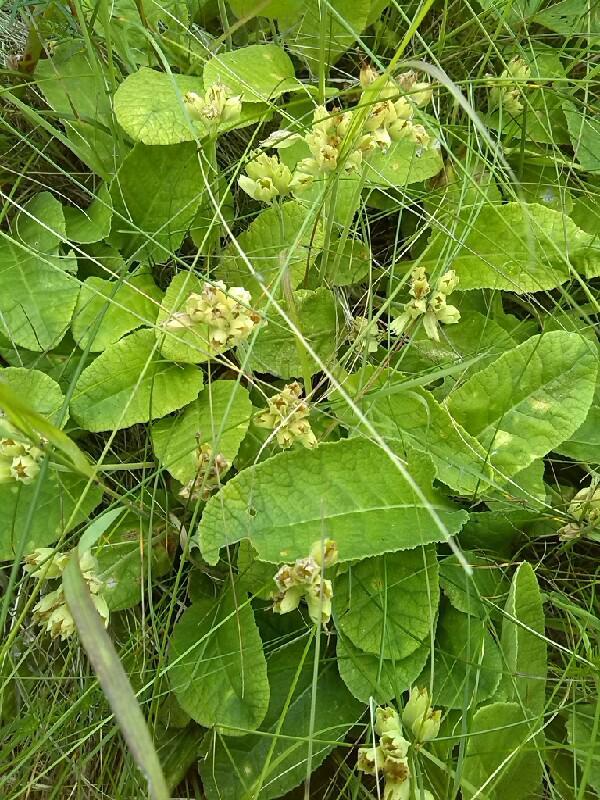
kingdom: Plantae
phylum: Tracheophyta
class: Magnoliopsida
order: Ericales
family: Primulaceae
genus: Primula
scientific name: Primula veris
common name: Cowslip
